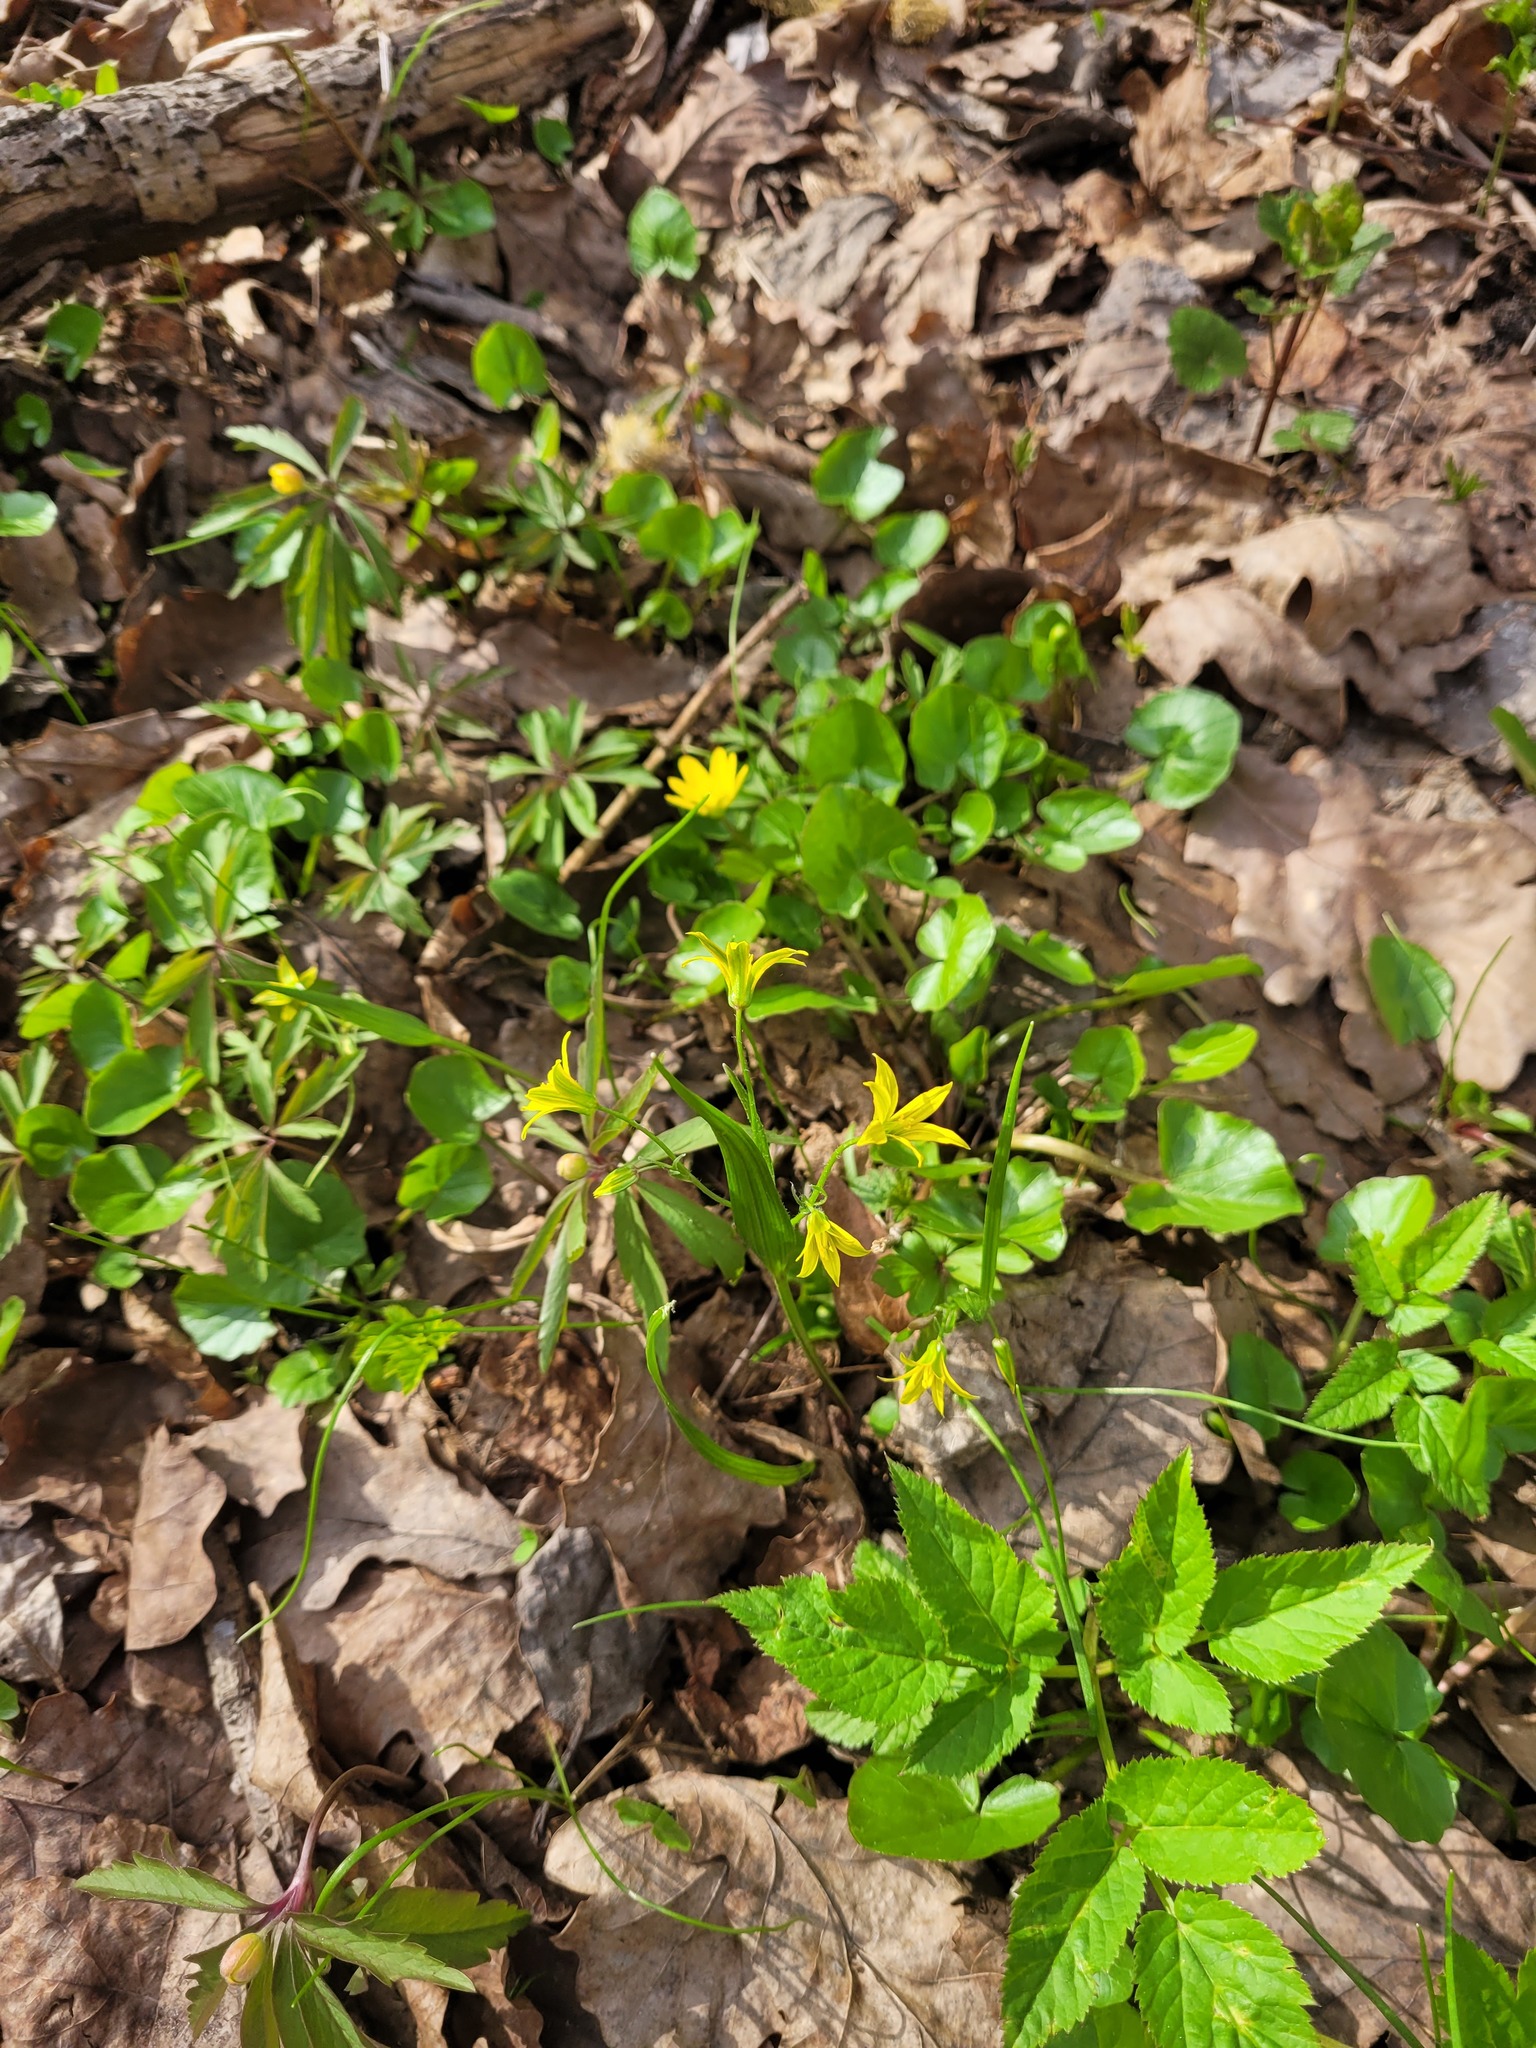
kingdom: Plantae
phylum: Tracheophyta
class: Liliopsida
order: Liliales
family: Liliaceae
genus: Gagea
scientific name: Gagea minima
